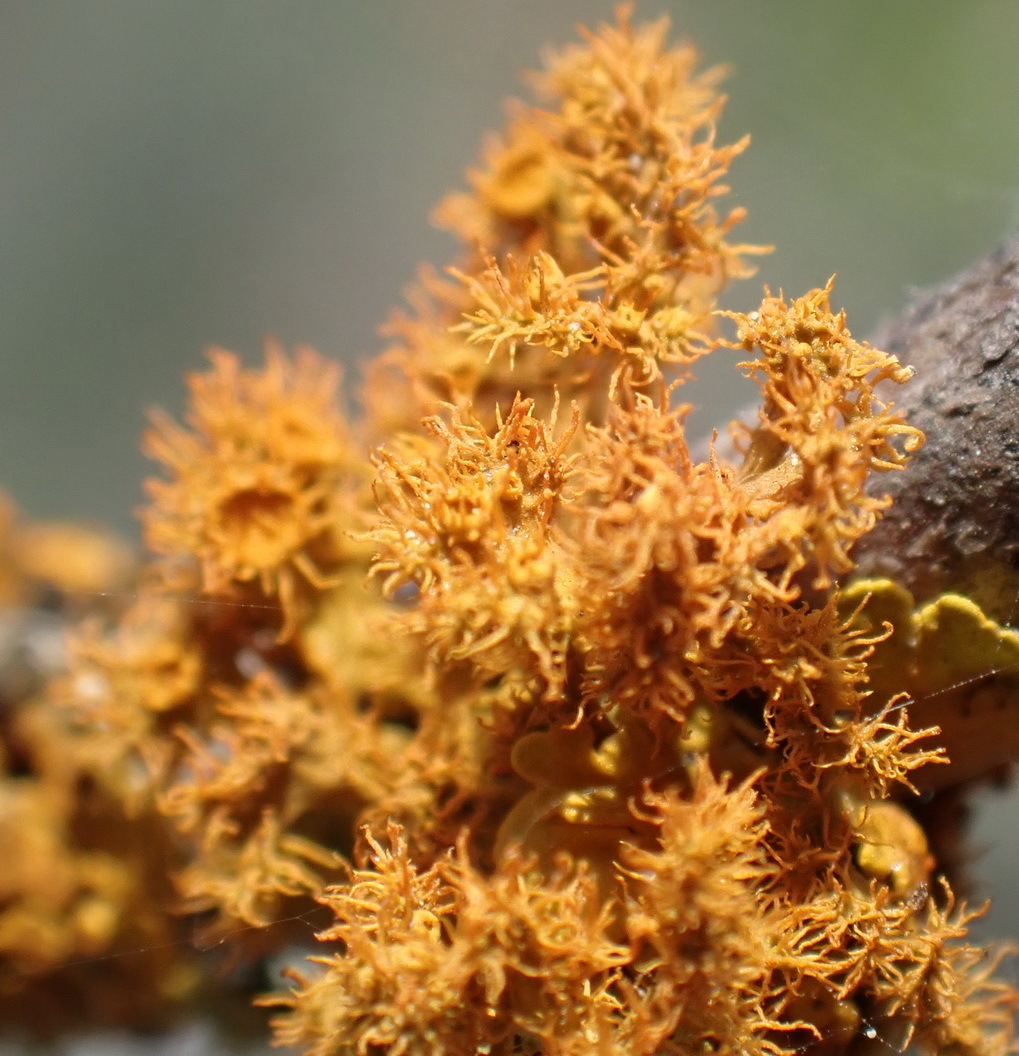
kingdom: Fungi
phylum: Ascomycota
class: Lecanoromycetes
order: Teloschistales
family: Teloschistaceae
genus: Niorma
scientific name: Niorma chrysophthalma
